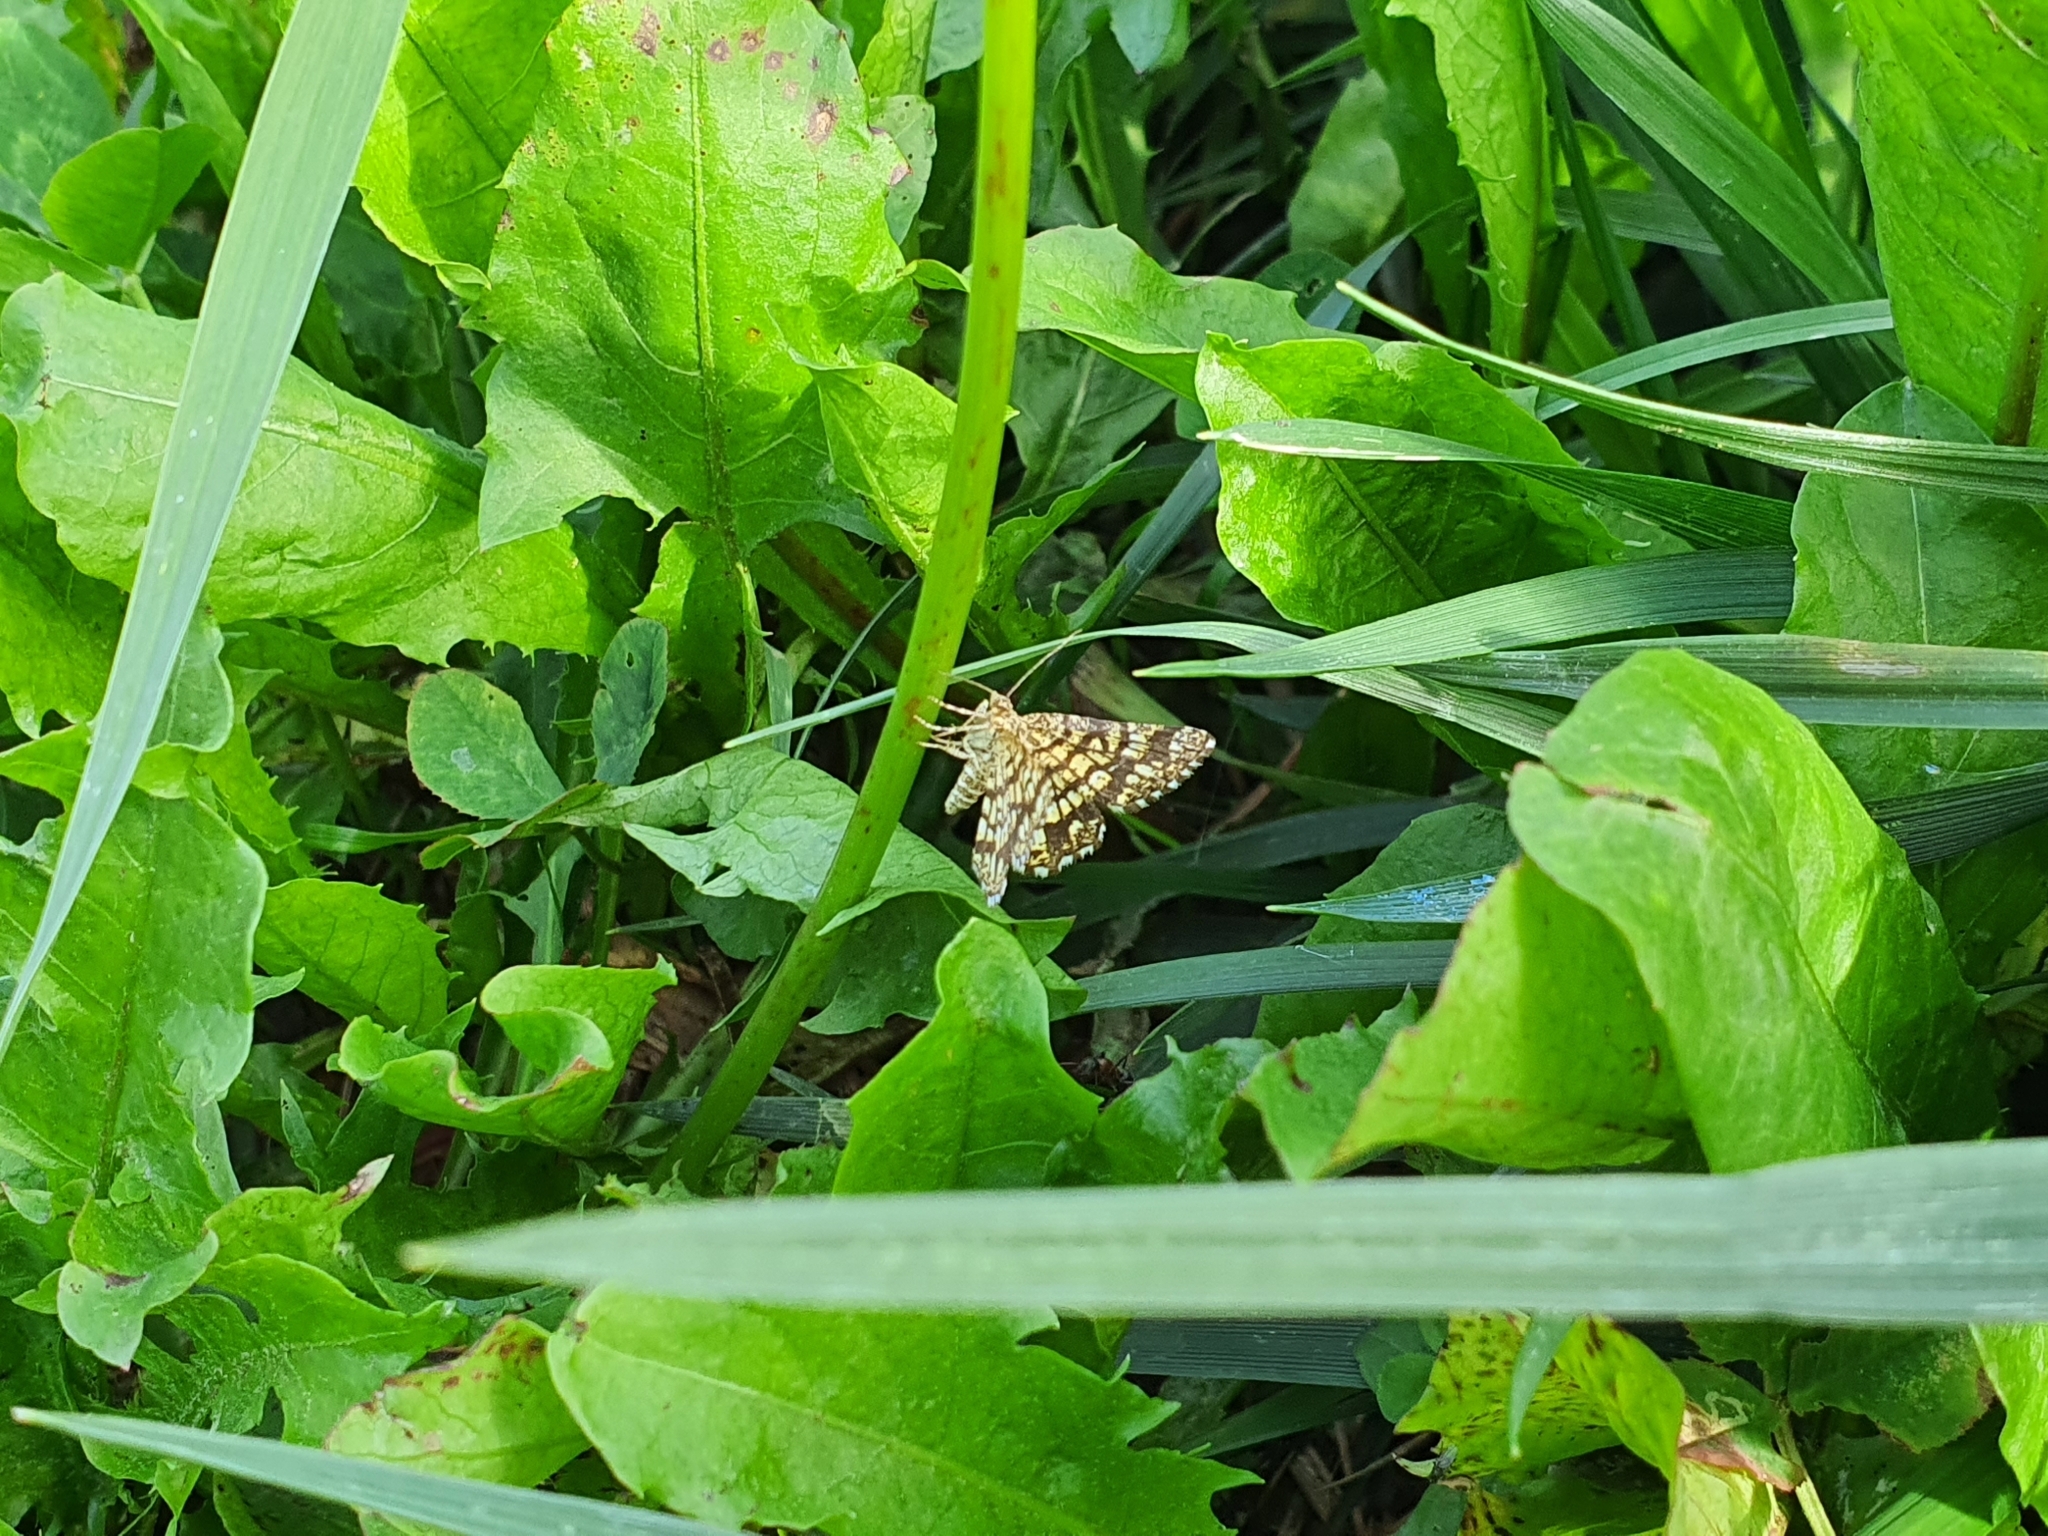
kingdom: Animalia
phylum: Arthropoda
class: Insecta
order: Lepidoptera
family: Geometridae
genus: Chiasmia
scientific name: Chiasmia clathrata
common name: Latticed heath
